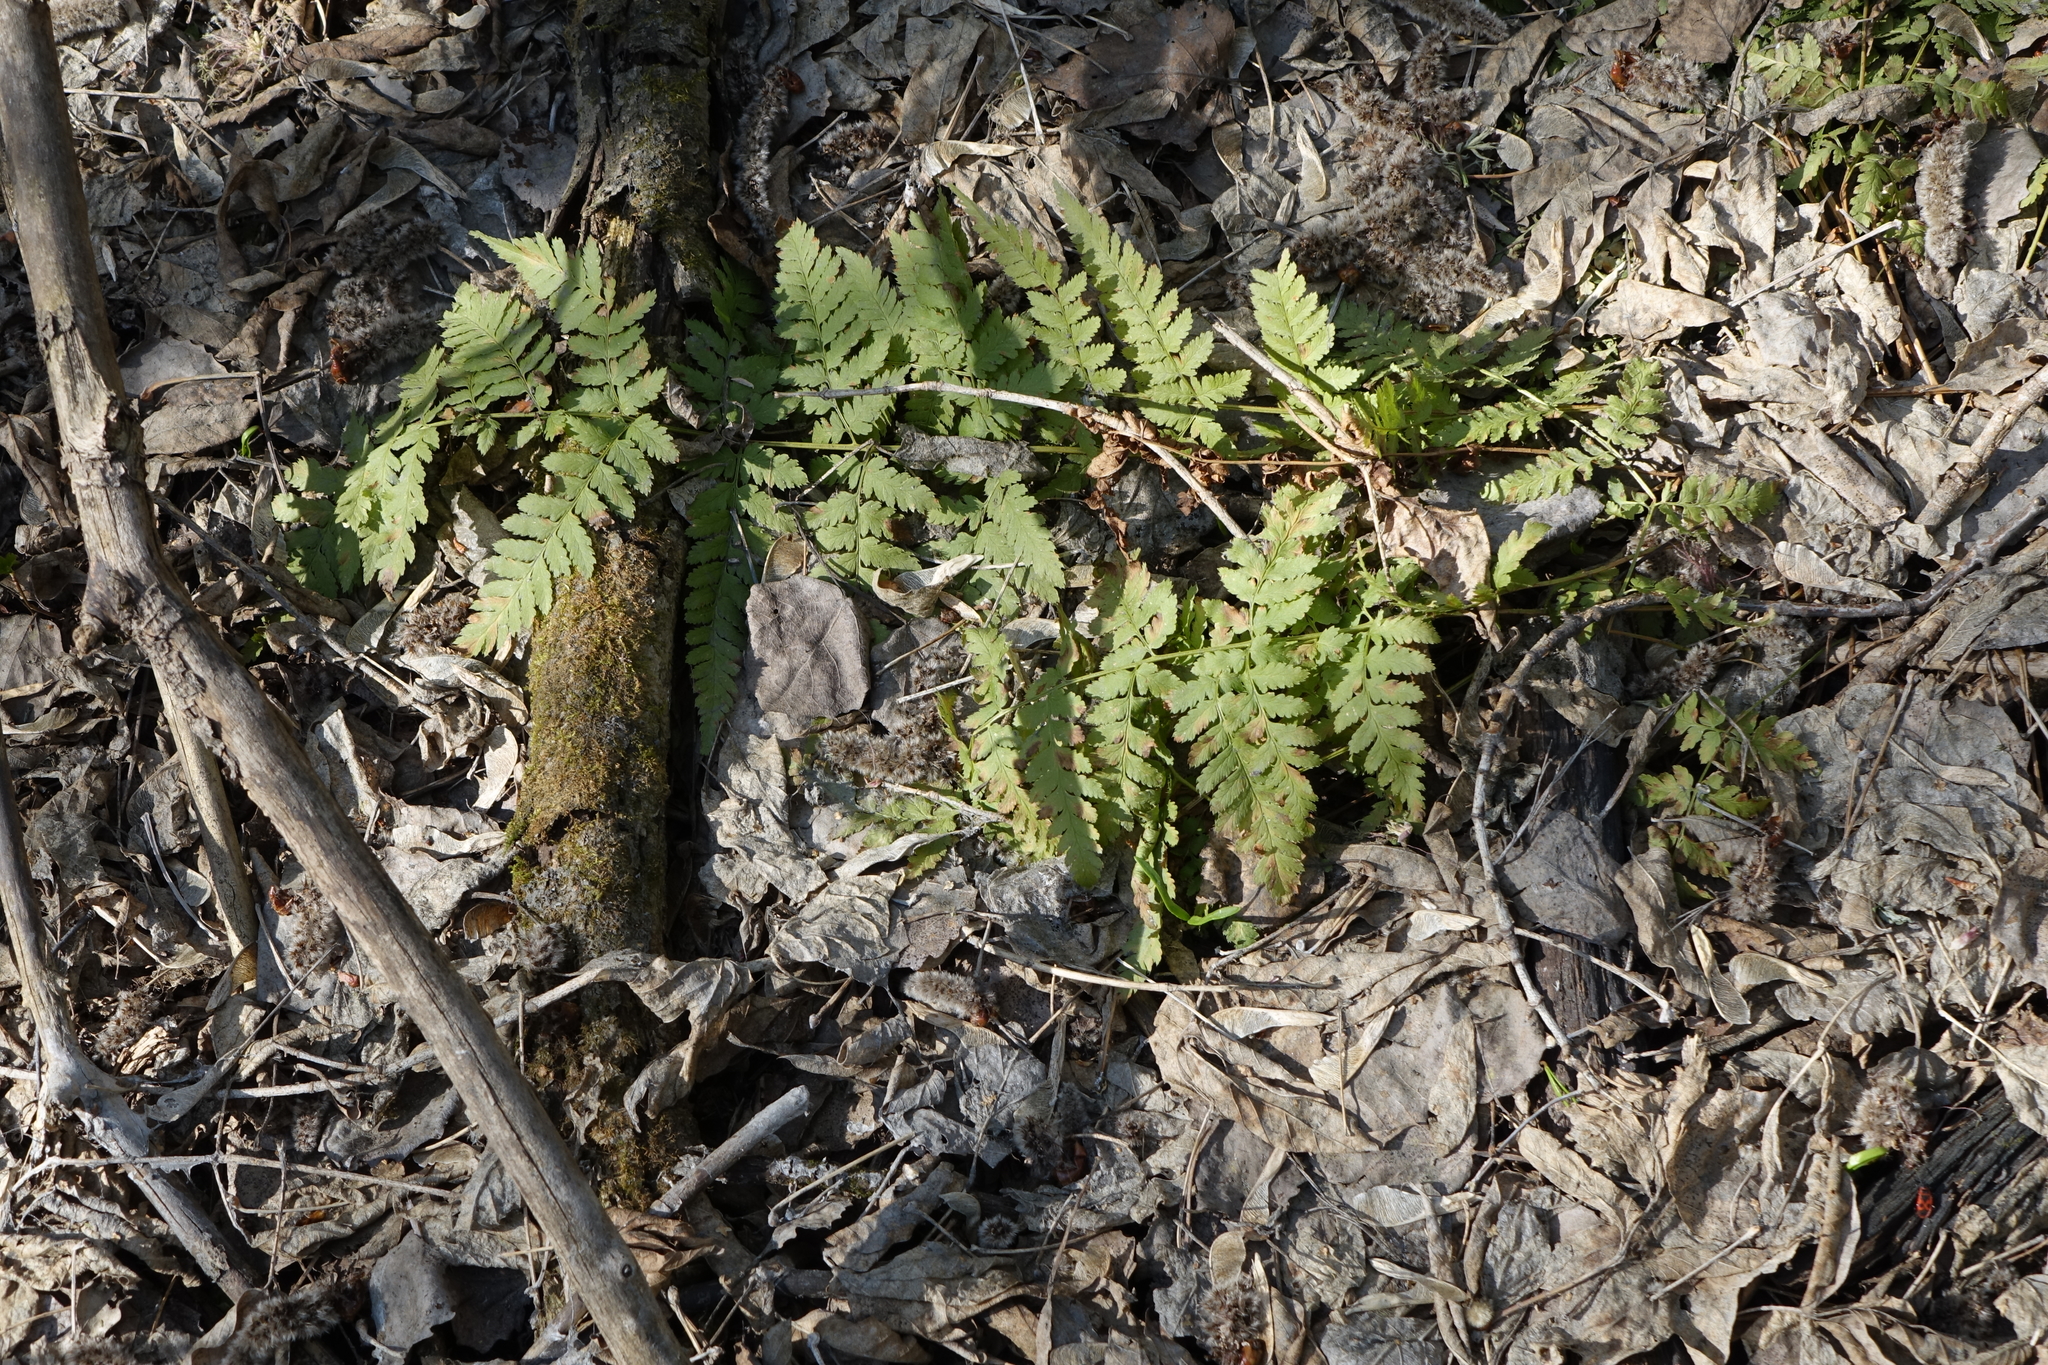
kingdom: Plantae
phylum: Tracheophyta
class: Polypodiopsida
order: Polypodiales
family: Dryopteridaceae
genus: Dryopteris
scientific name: Dryopteris carthusiana
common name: Narrow buckler-fern
